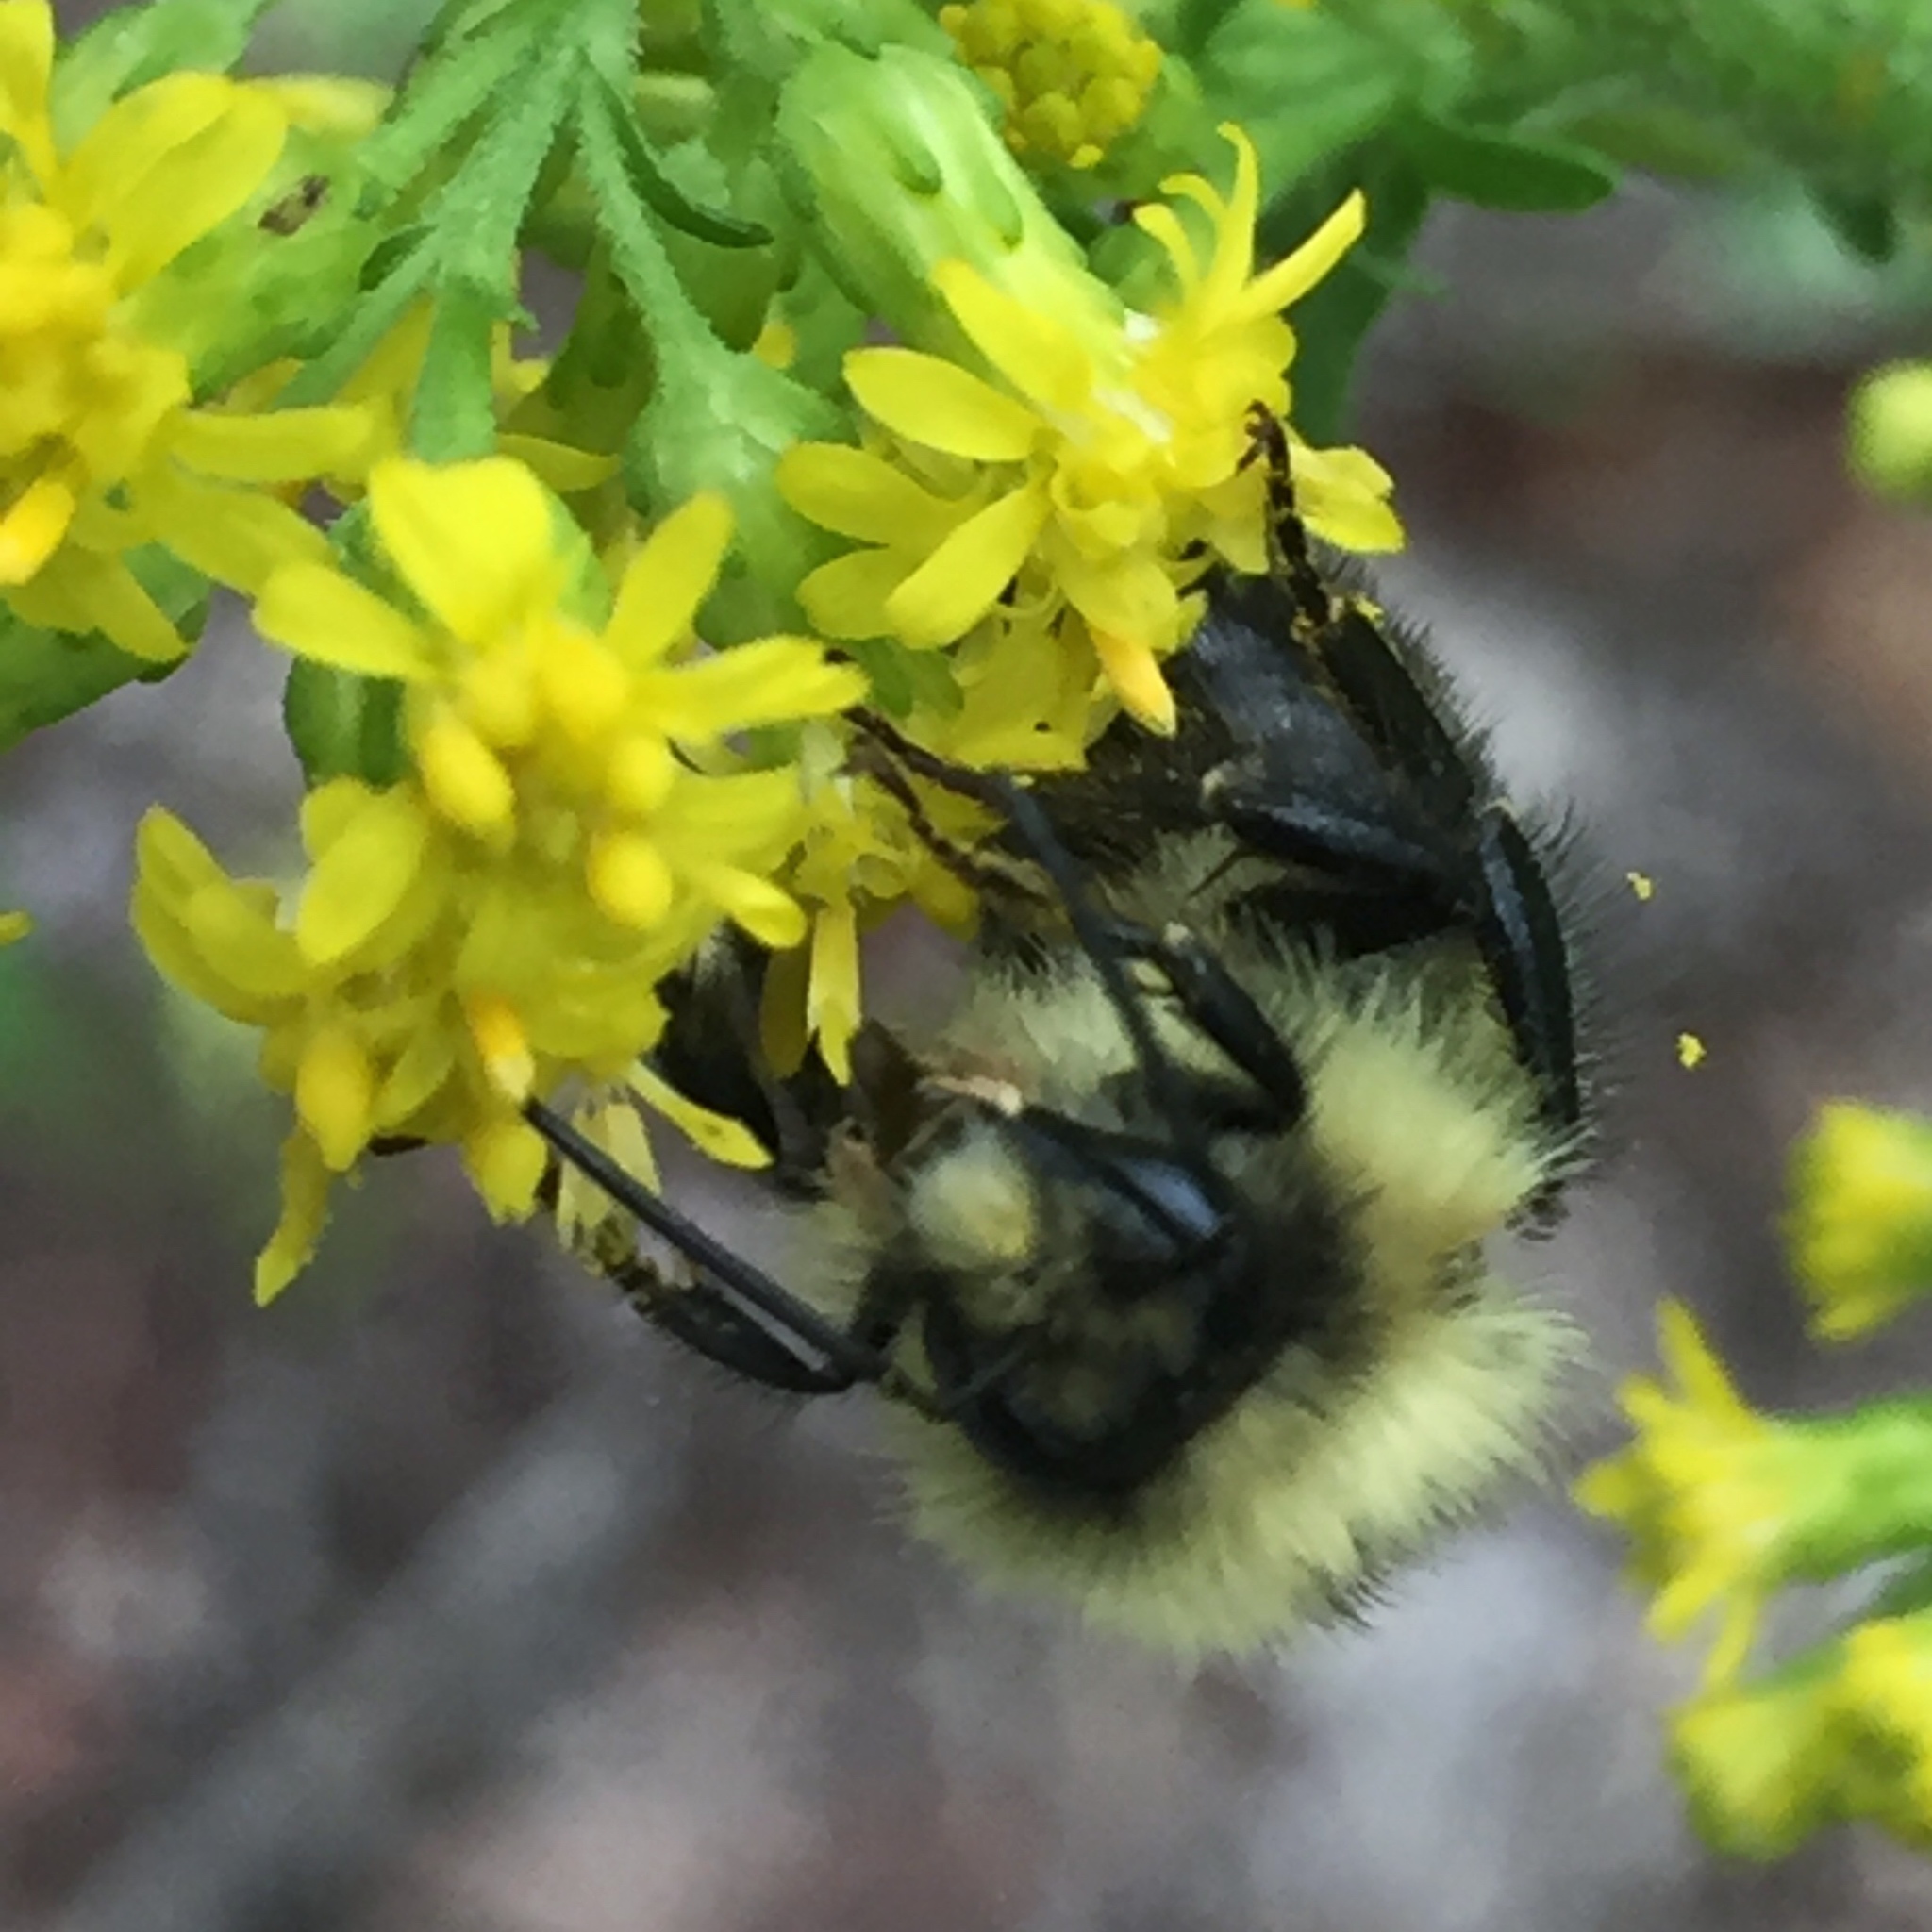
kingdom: Animalia
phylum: Arthropoda
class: Insecta
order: Hymenoptera
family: Apidae
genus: Pyrobombus
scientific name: Pyrobombus
